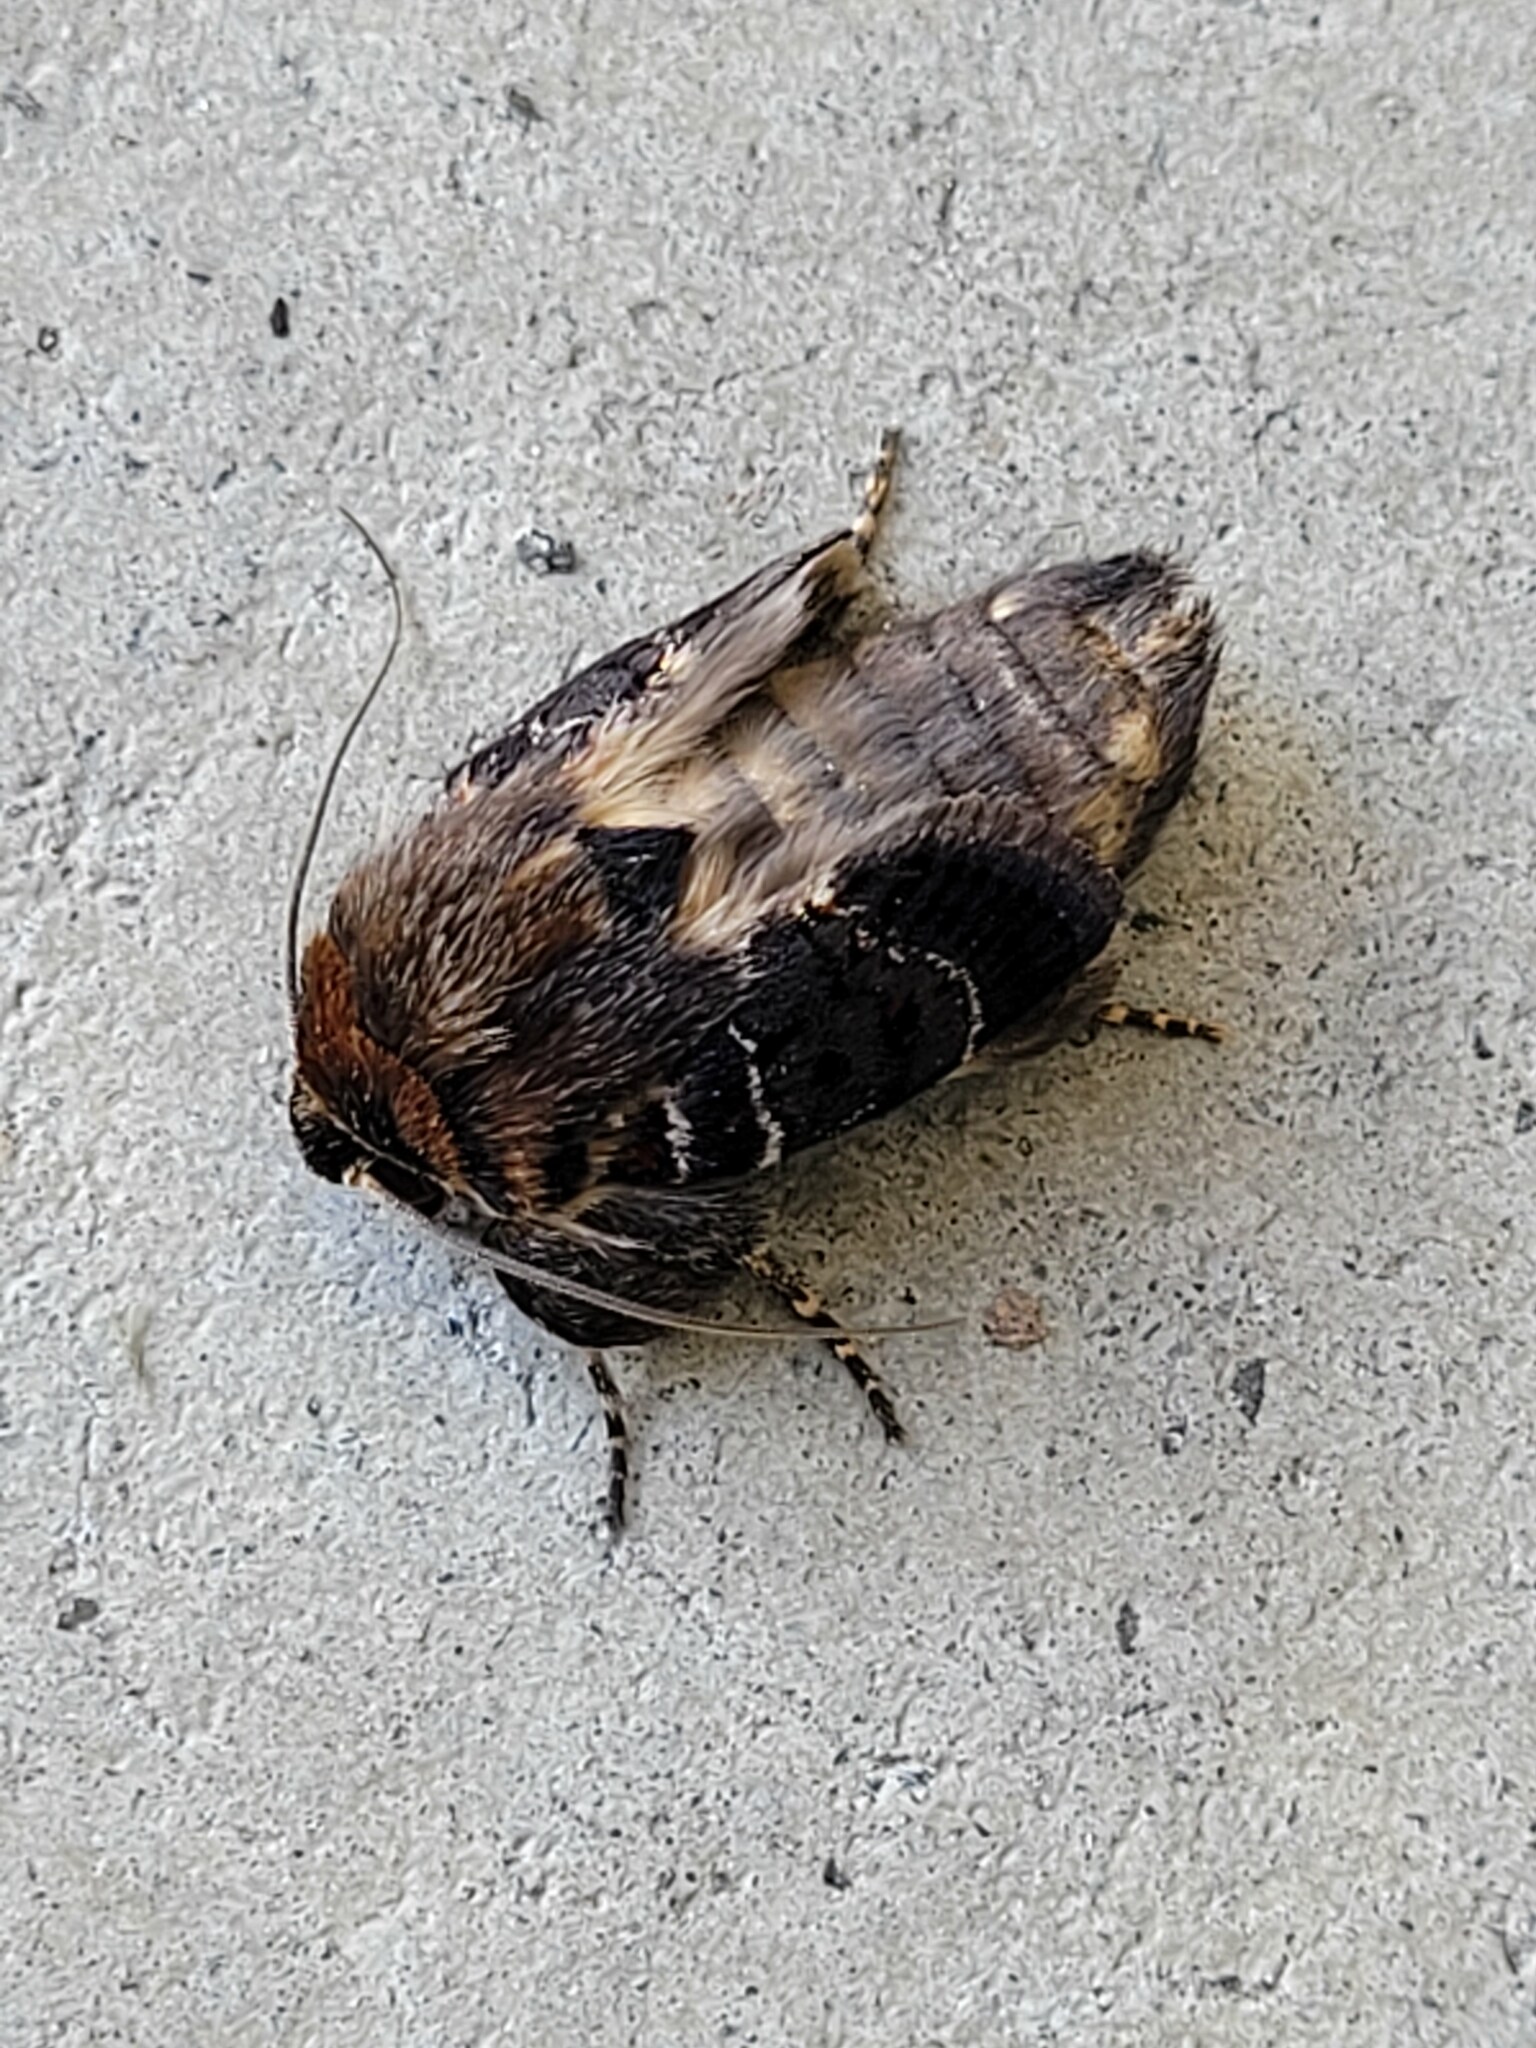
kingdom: Animalia
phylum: Arthropoda
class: Insecta
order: Lepidoptera
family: Noctuidae
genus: Proteuxoa
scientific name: Proteuxoa sanguinipuncta
